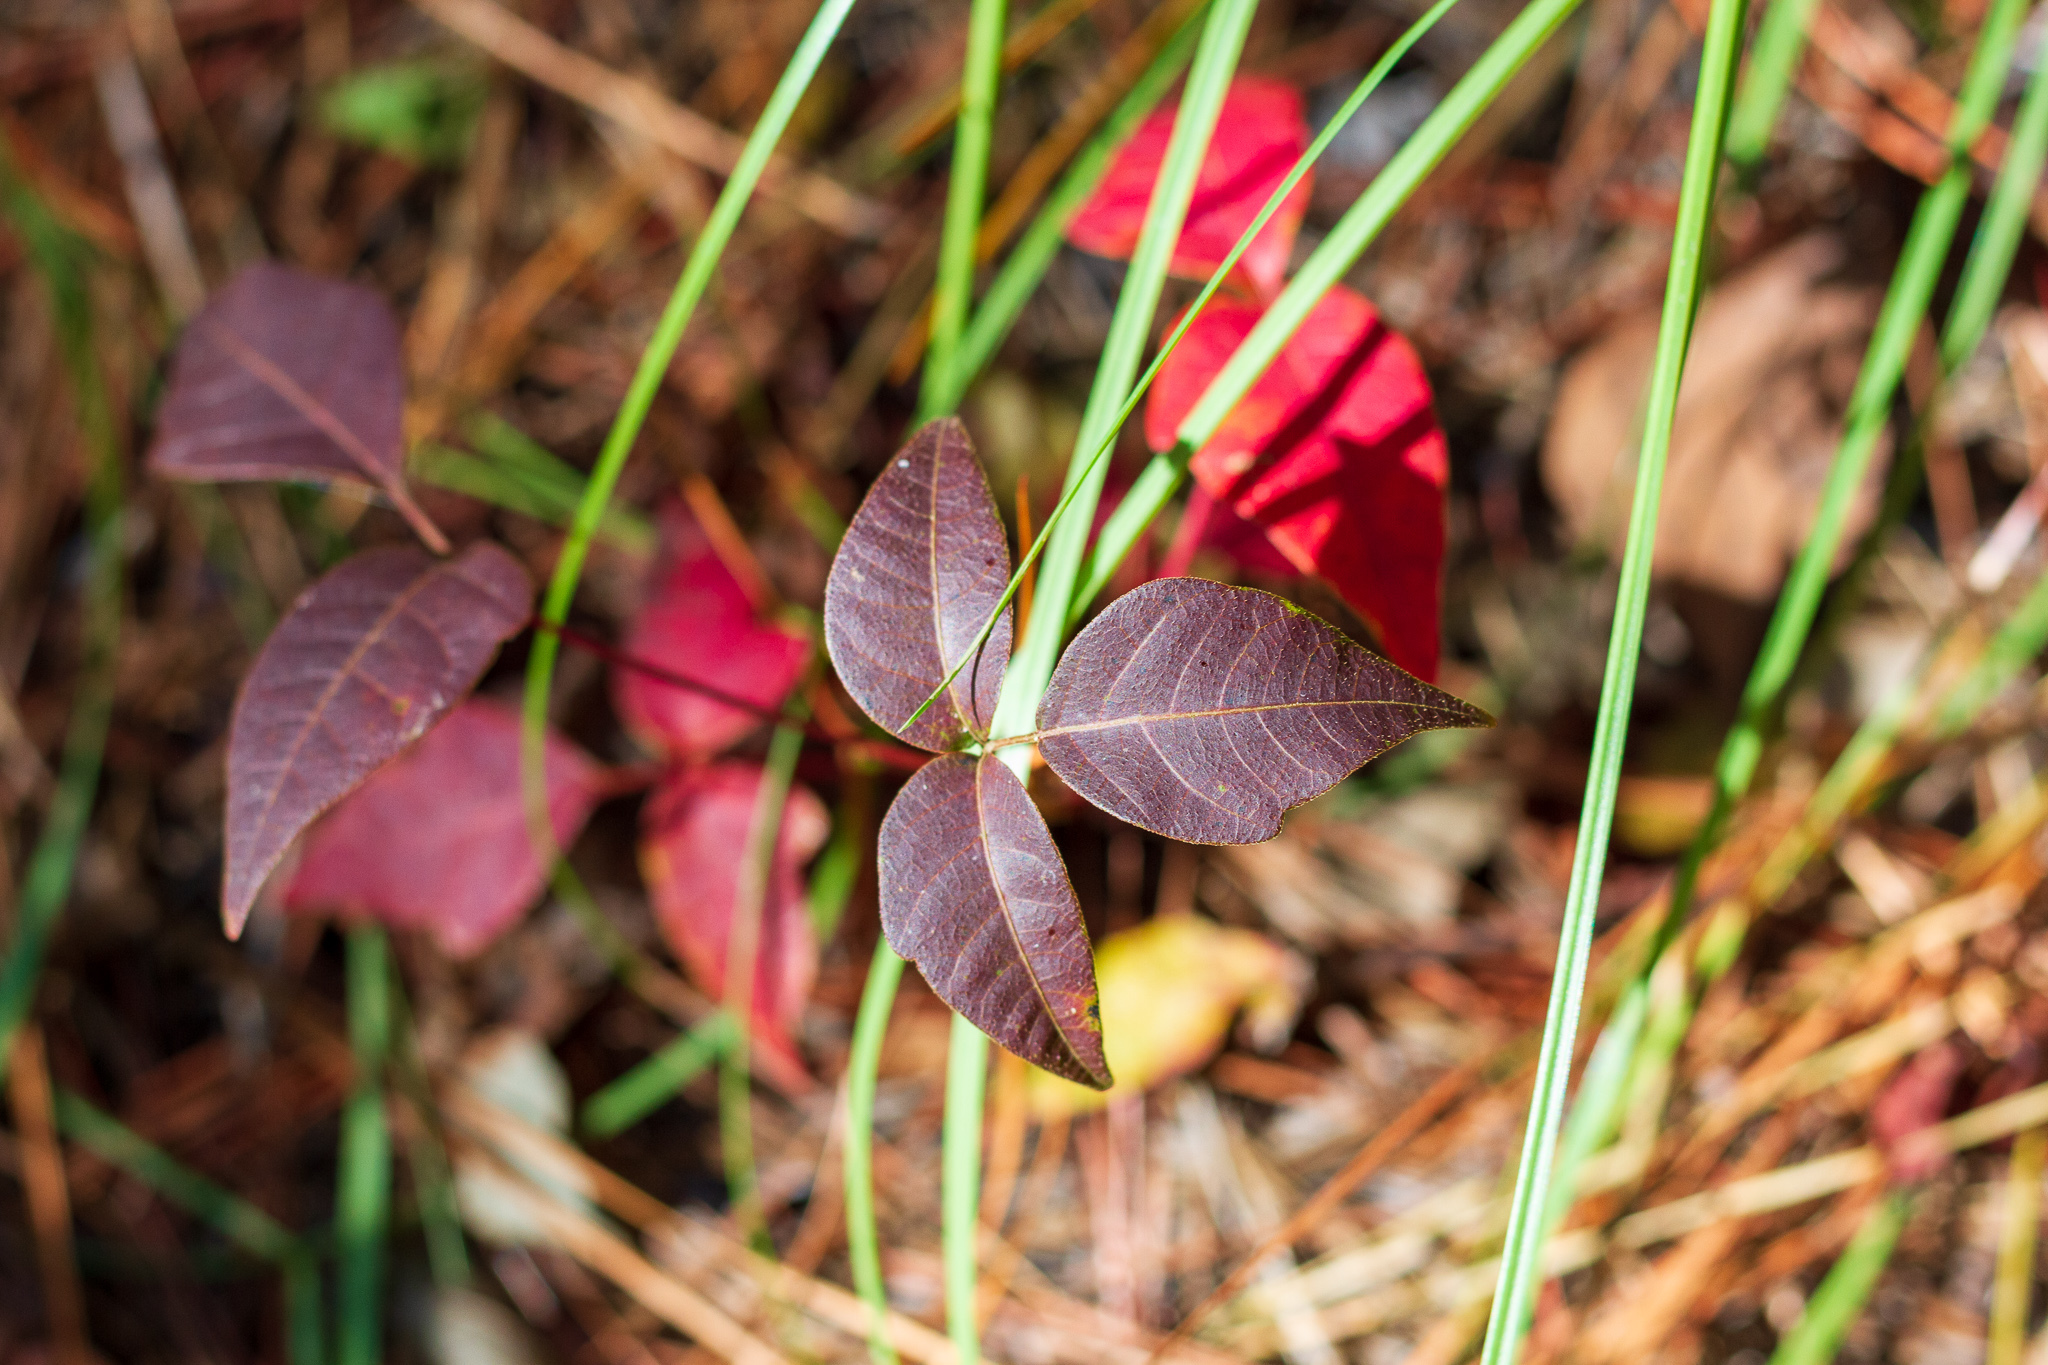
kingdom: Plantae
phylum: Tracheophyta
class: Magnoliopsida
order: Sapindales
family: Anacardiaceae
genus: Toxicodendron
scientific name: Toxicodendron radicans
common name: Poison ivy
